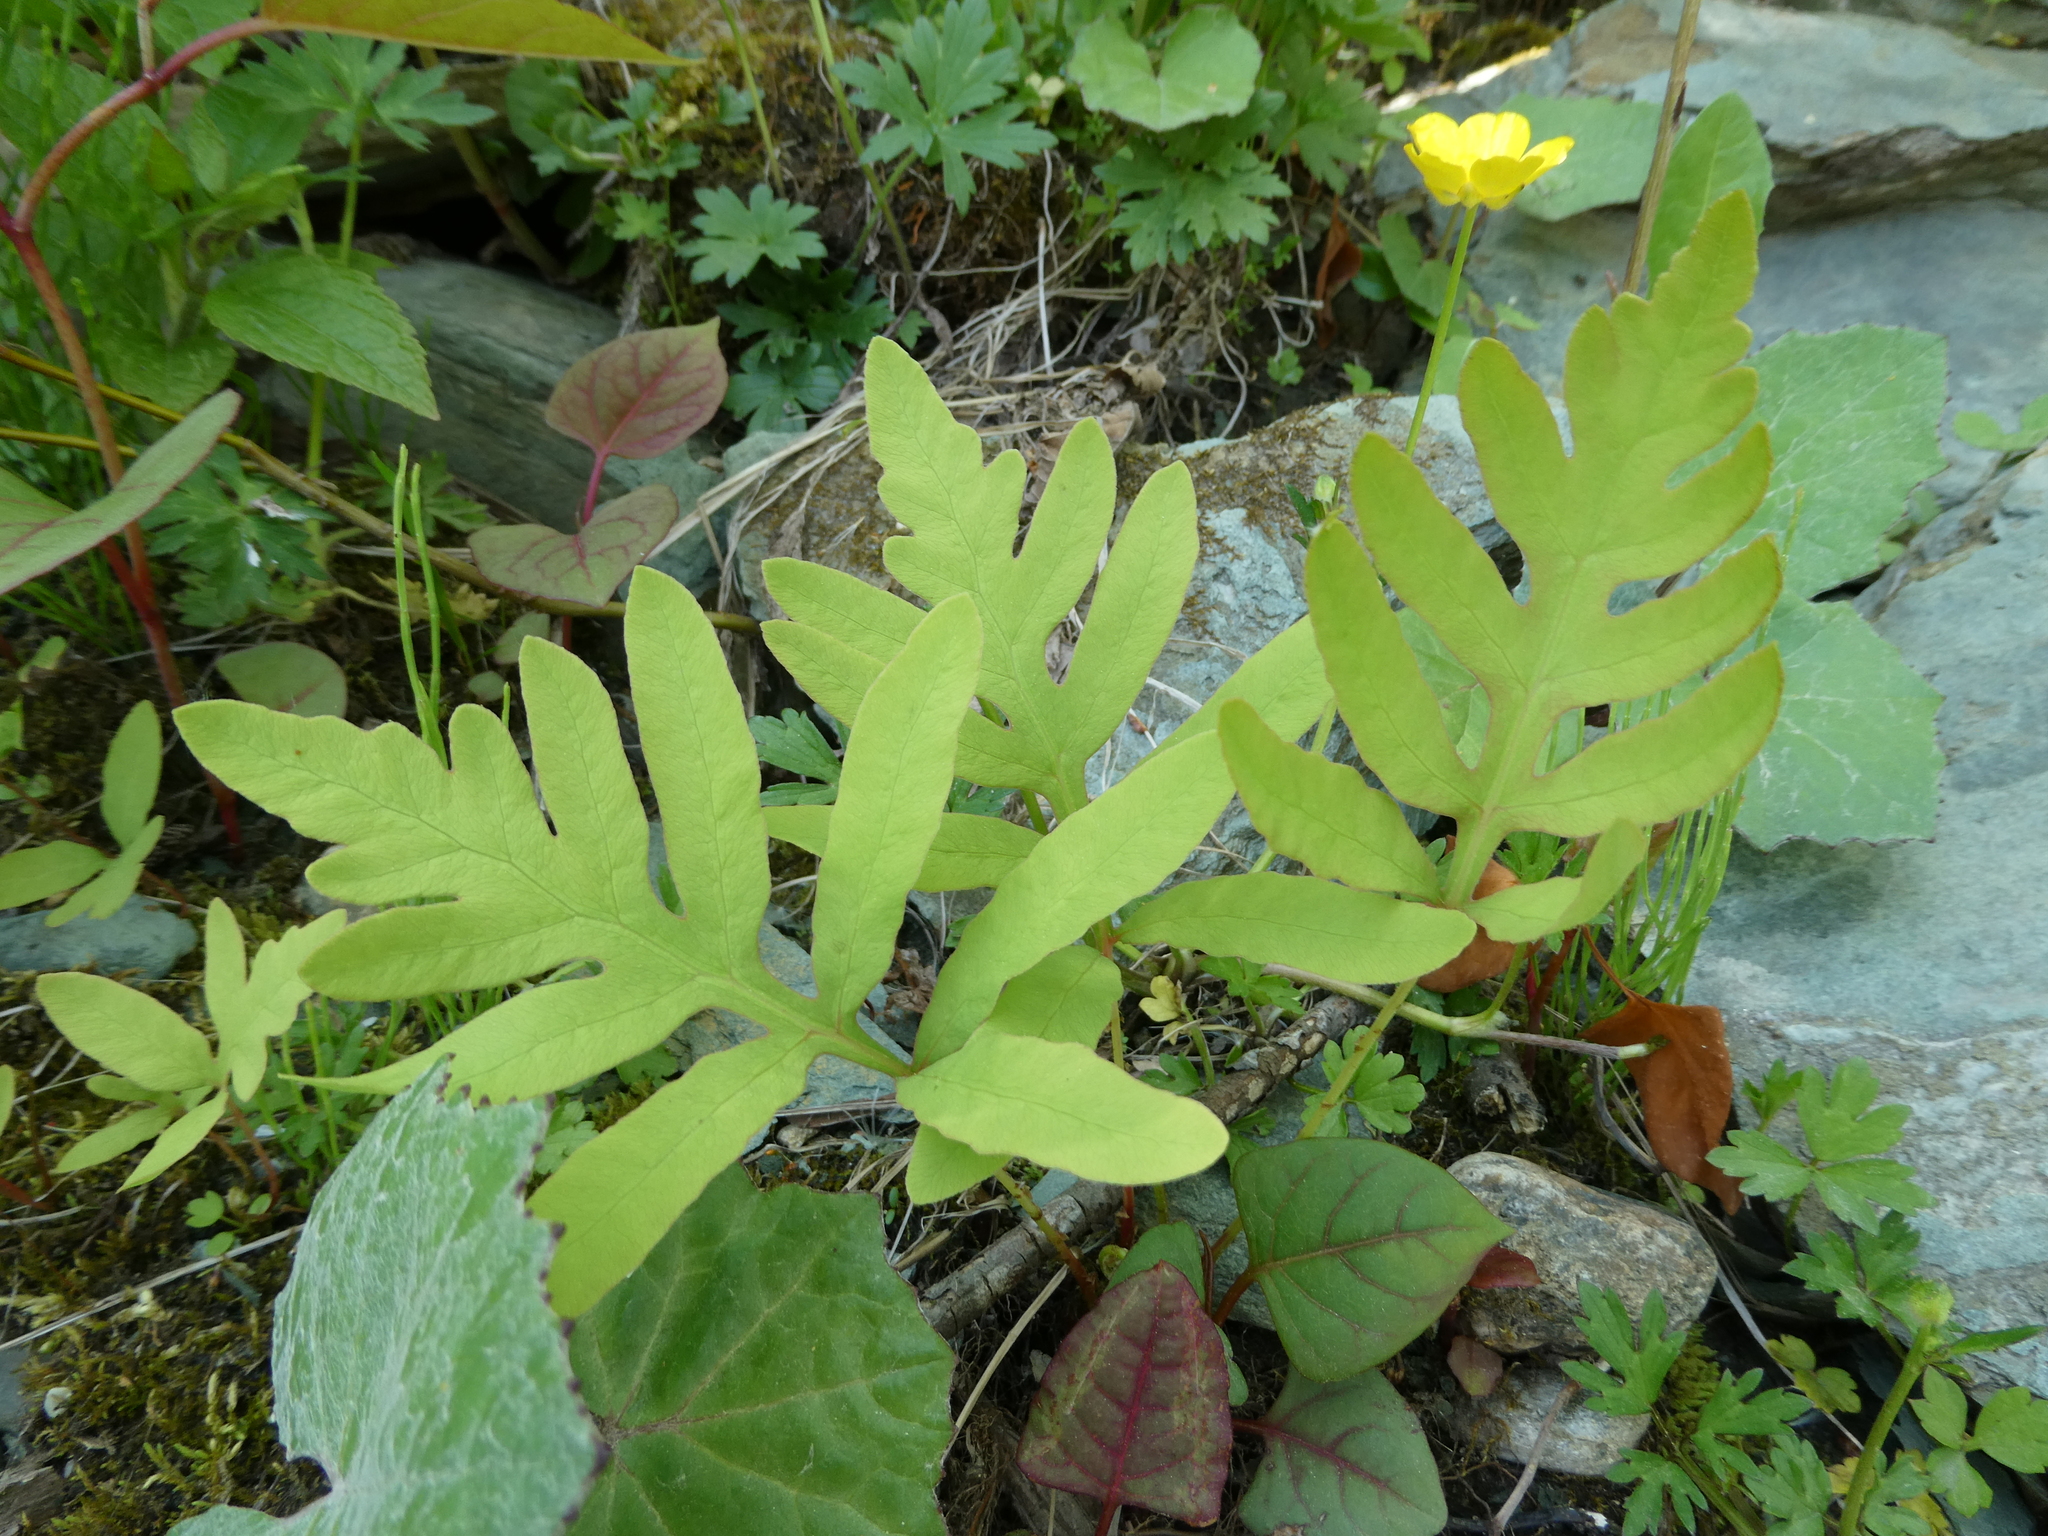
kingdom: Plantae
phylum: Tracheophyta
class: Polypodiopsida
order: Polypodiales
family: Onocleaceae
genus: Onoclea
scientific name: Onoclea sensibilis
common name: Sensitive fern
